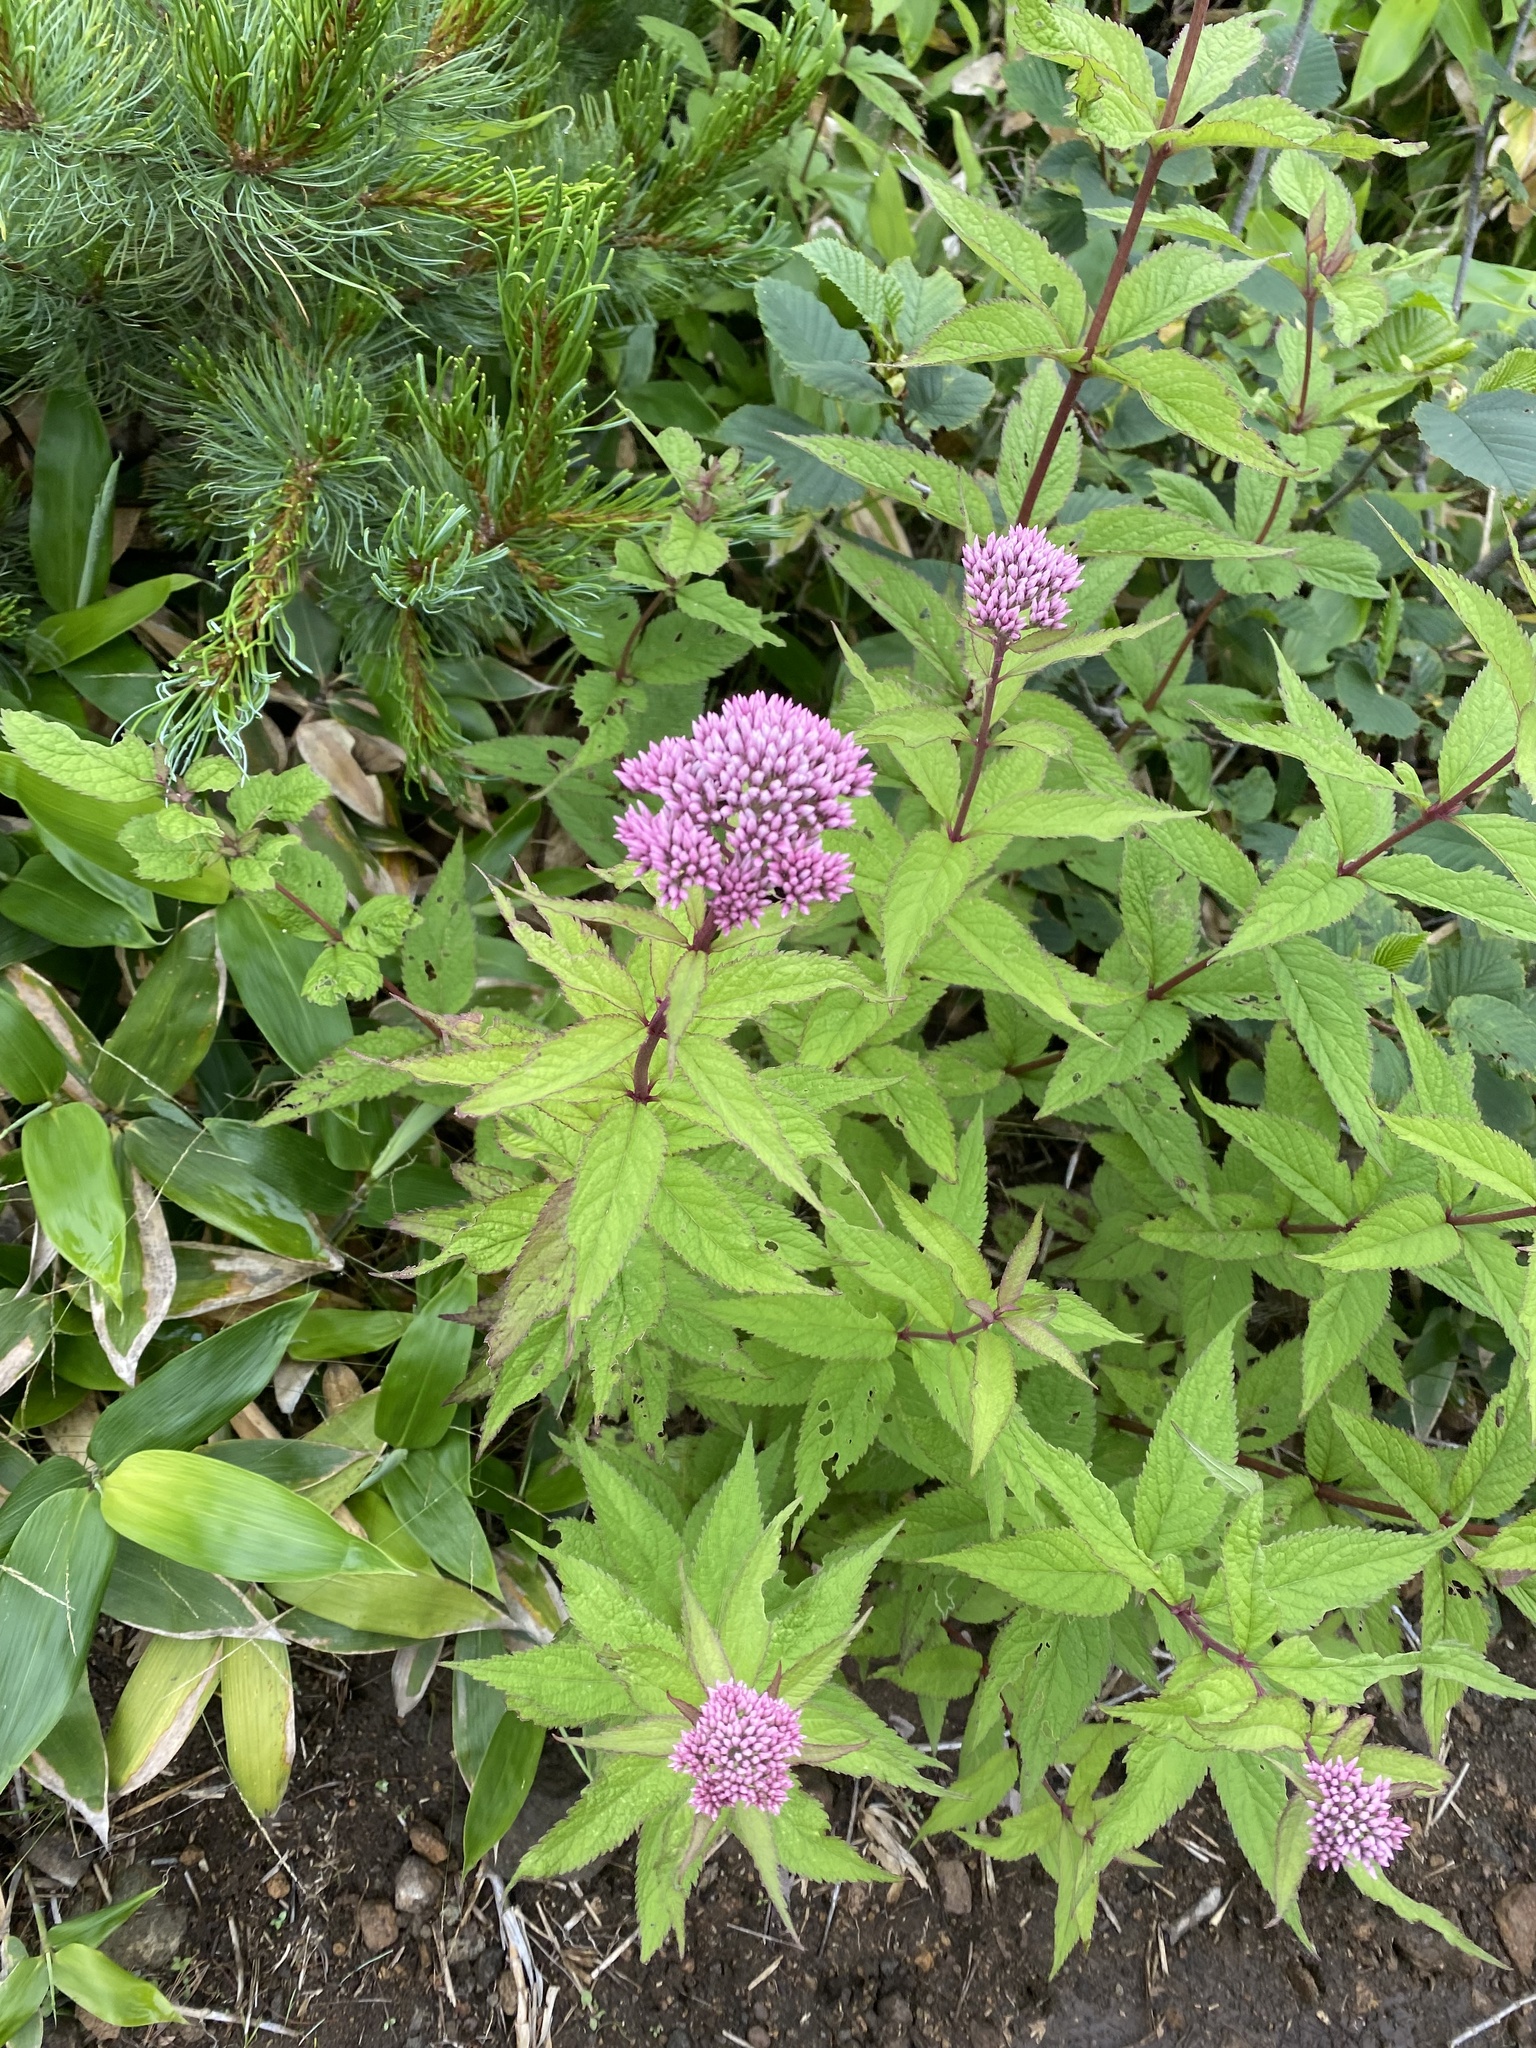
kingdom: Plantae
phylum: Tracheophyta
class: Magnoliopsida
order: Asterales
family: Asteraceae
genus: Eupatorium
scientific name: Eupatorium glehnii
